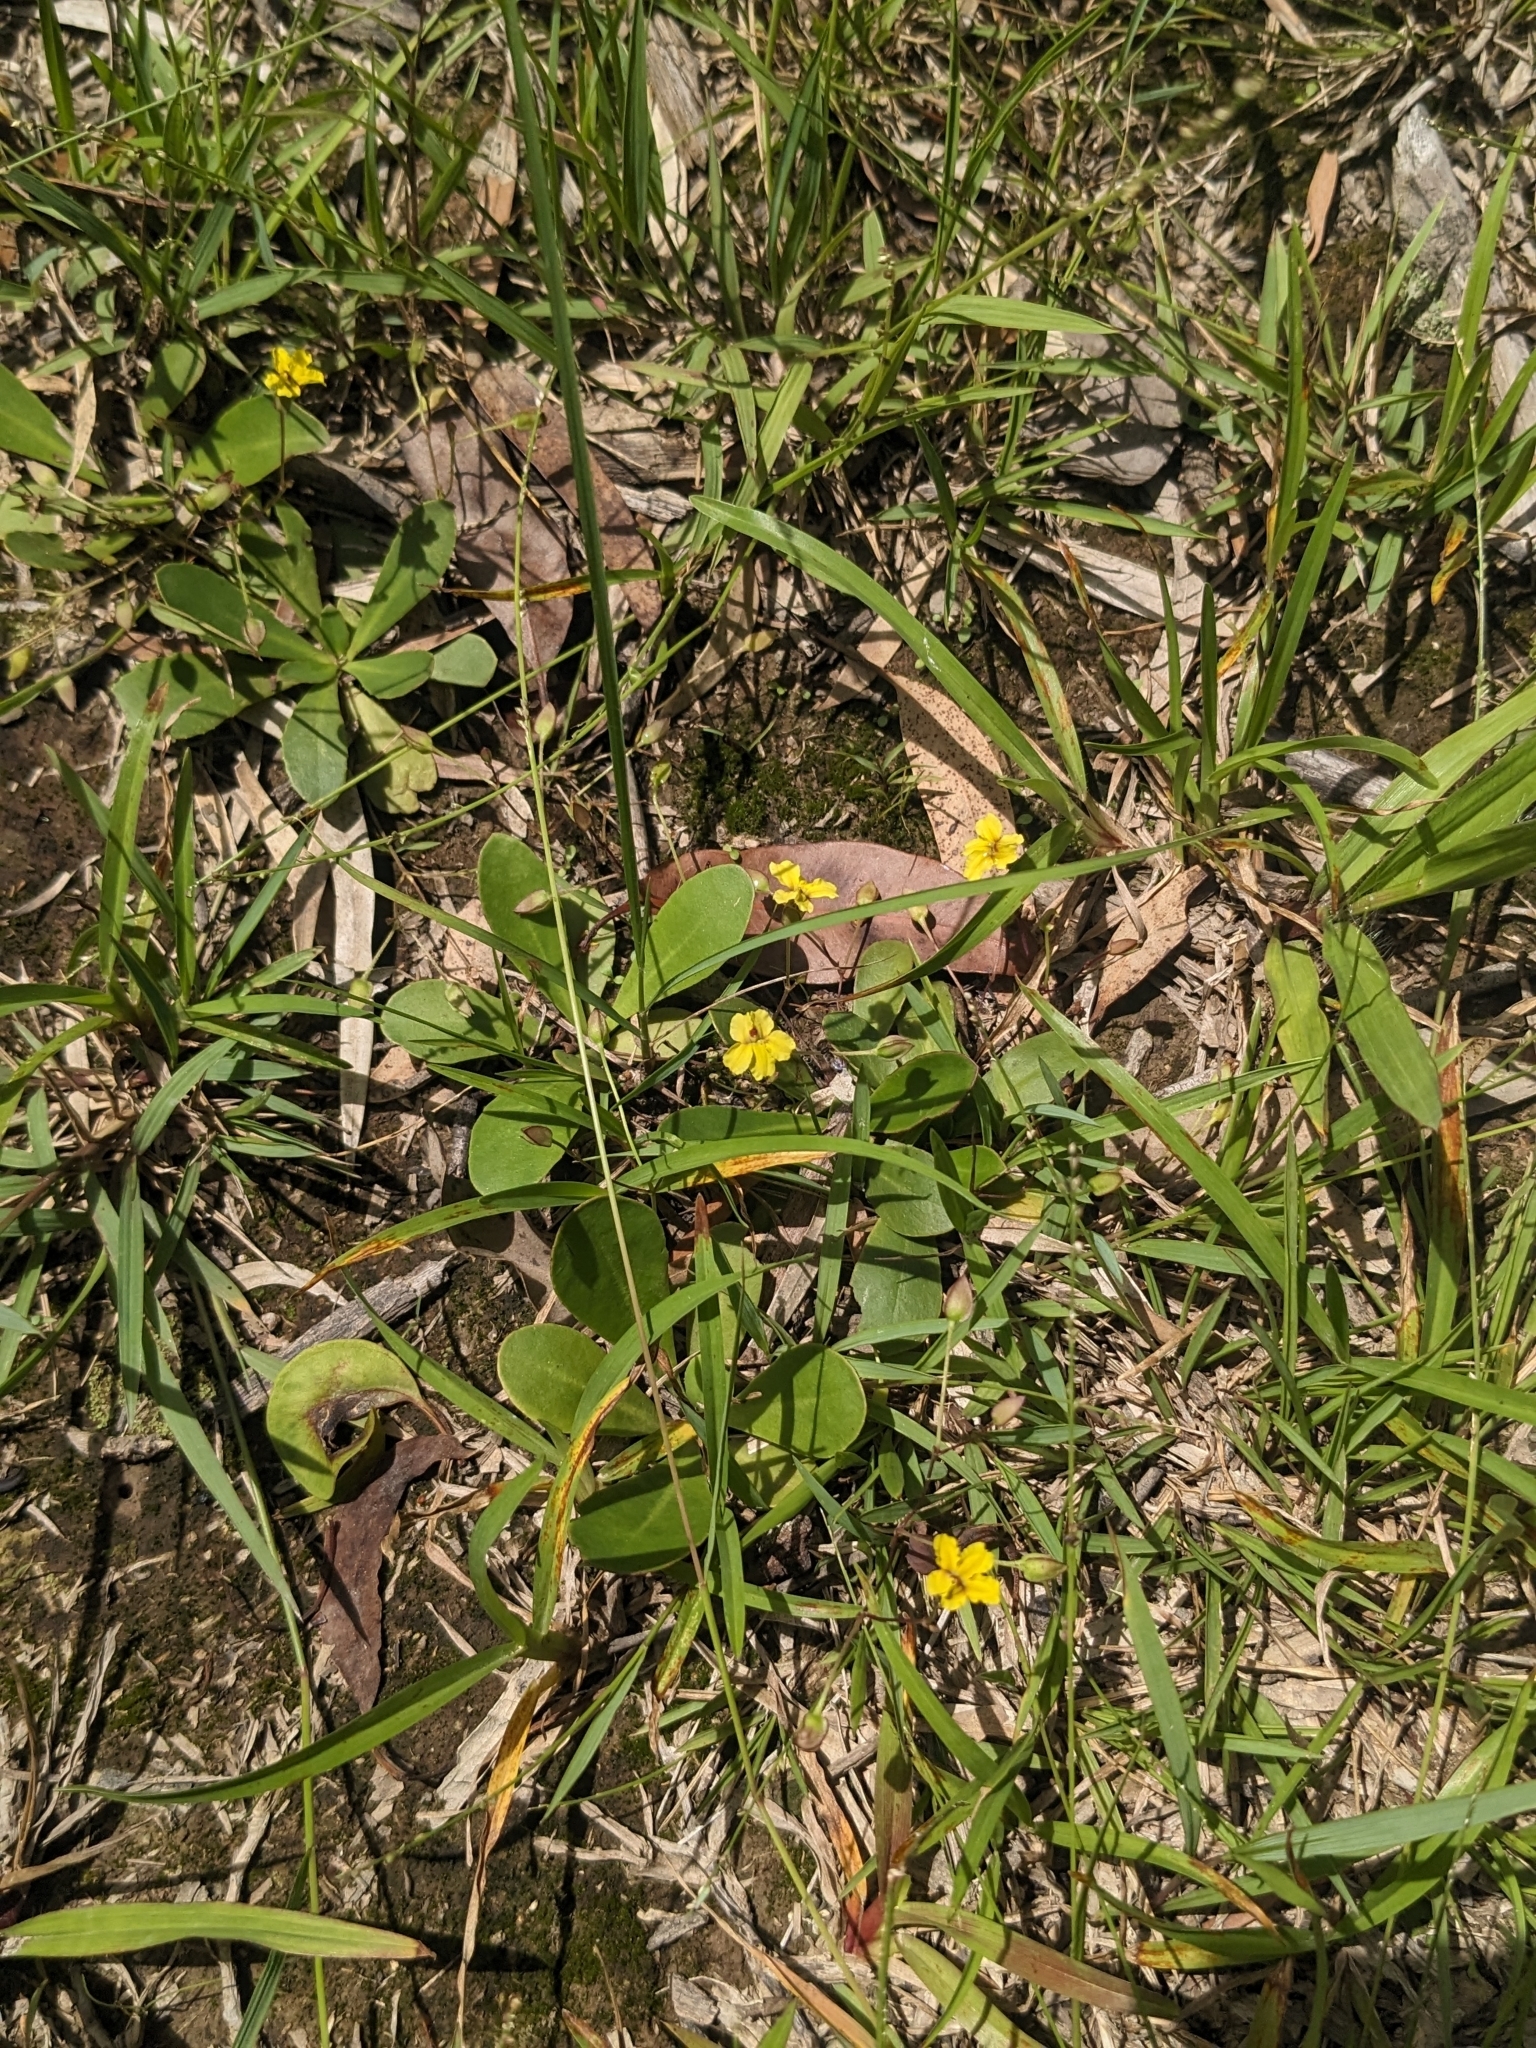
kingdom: Plantae
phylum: Tracheophyta
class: Magnoliopsida
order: Asterales
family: Goodeniaceae
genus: Goodenia
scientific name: Goodenia mystrophylla
